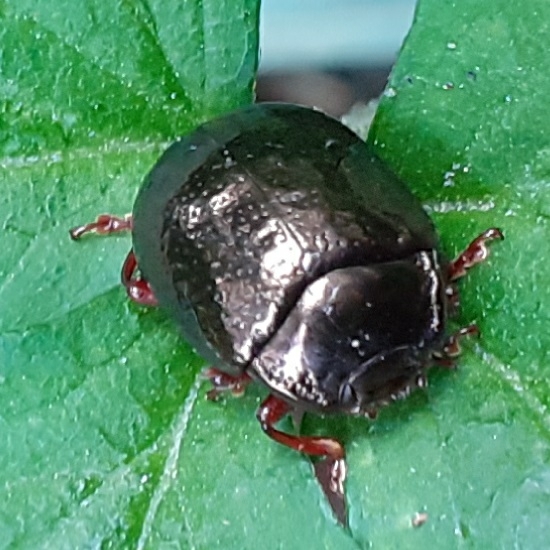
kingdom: Animalia
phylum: Arthropoda
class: Insecta
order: Coleoptera
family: Chrysomelidae
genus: Chrysolina
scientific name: Chrysolina bankii
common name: Leaf beetle
